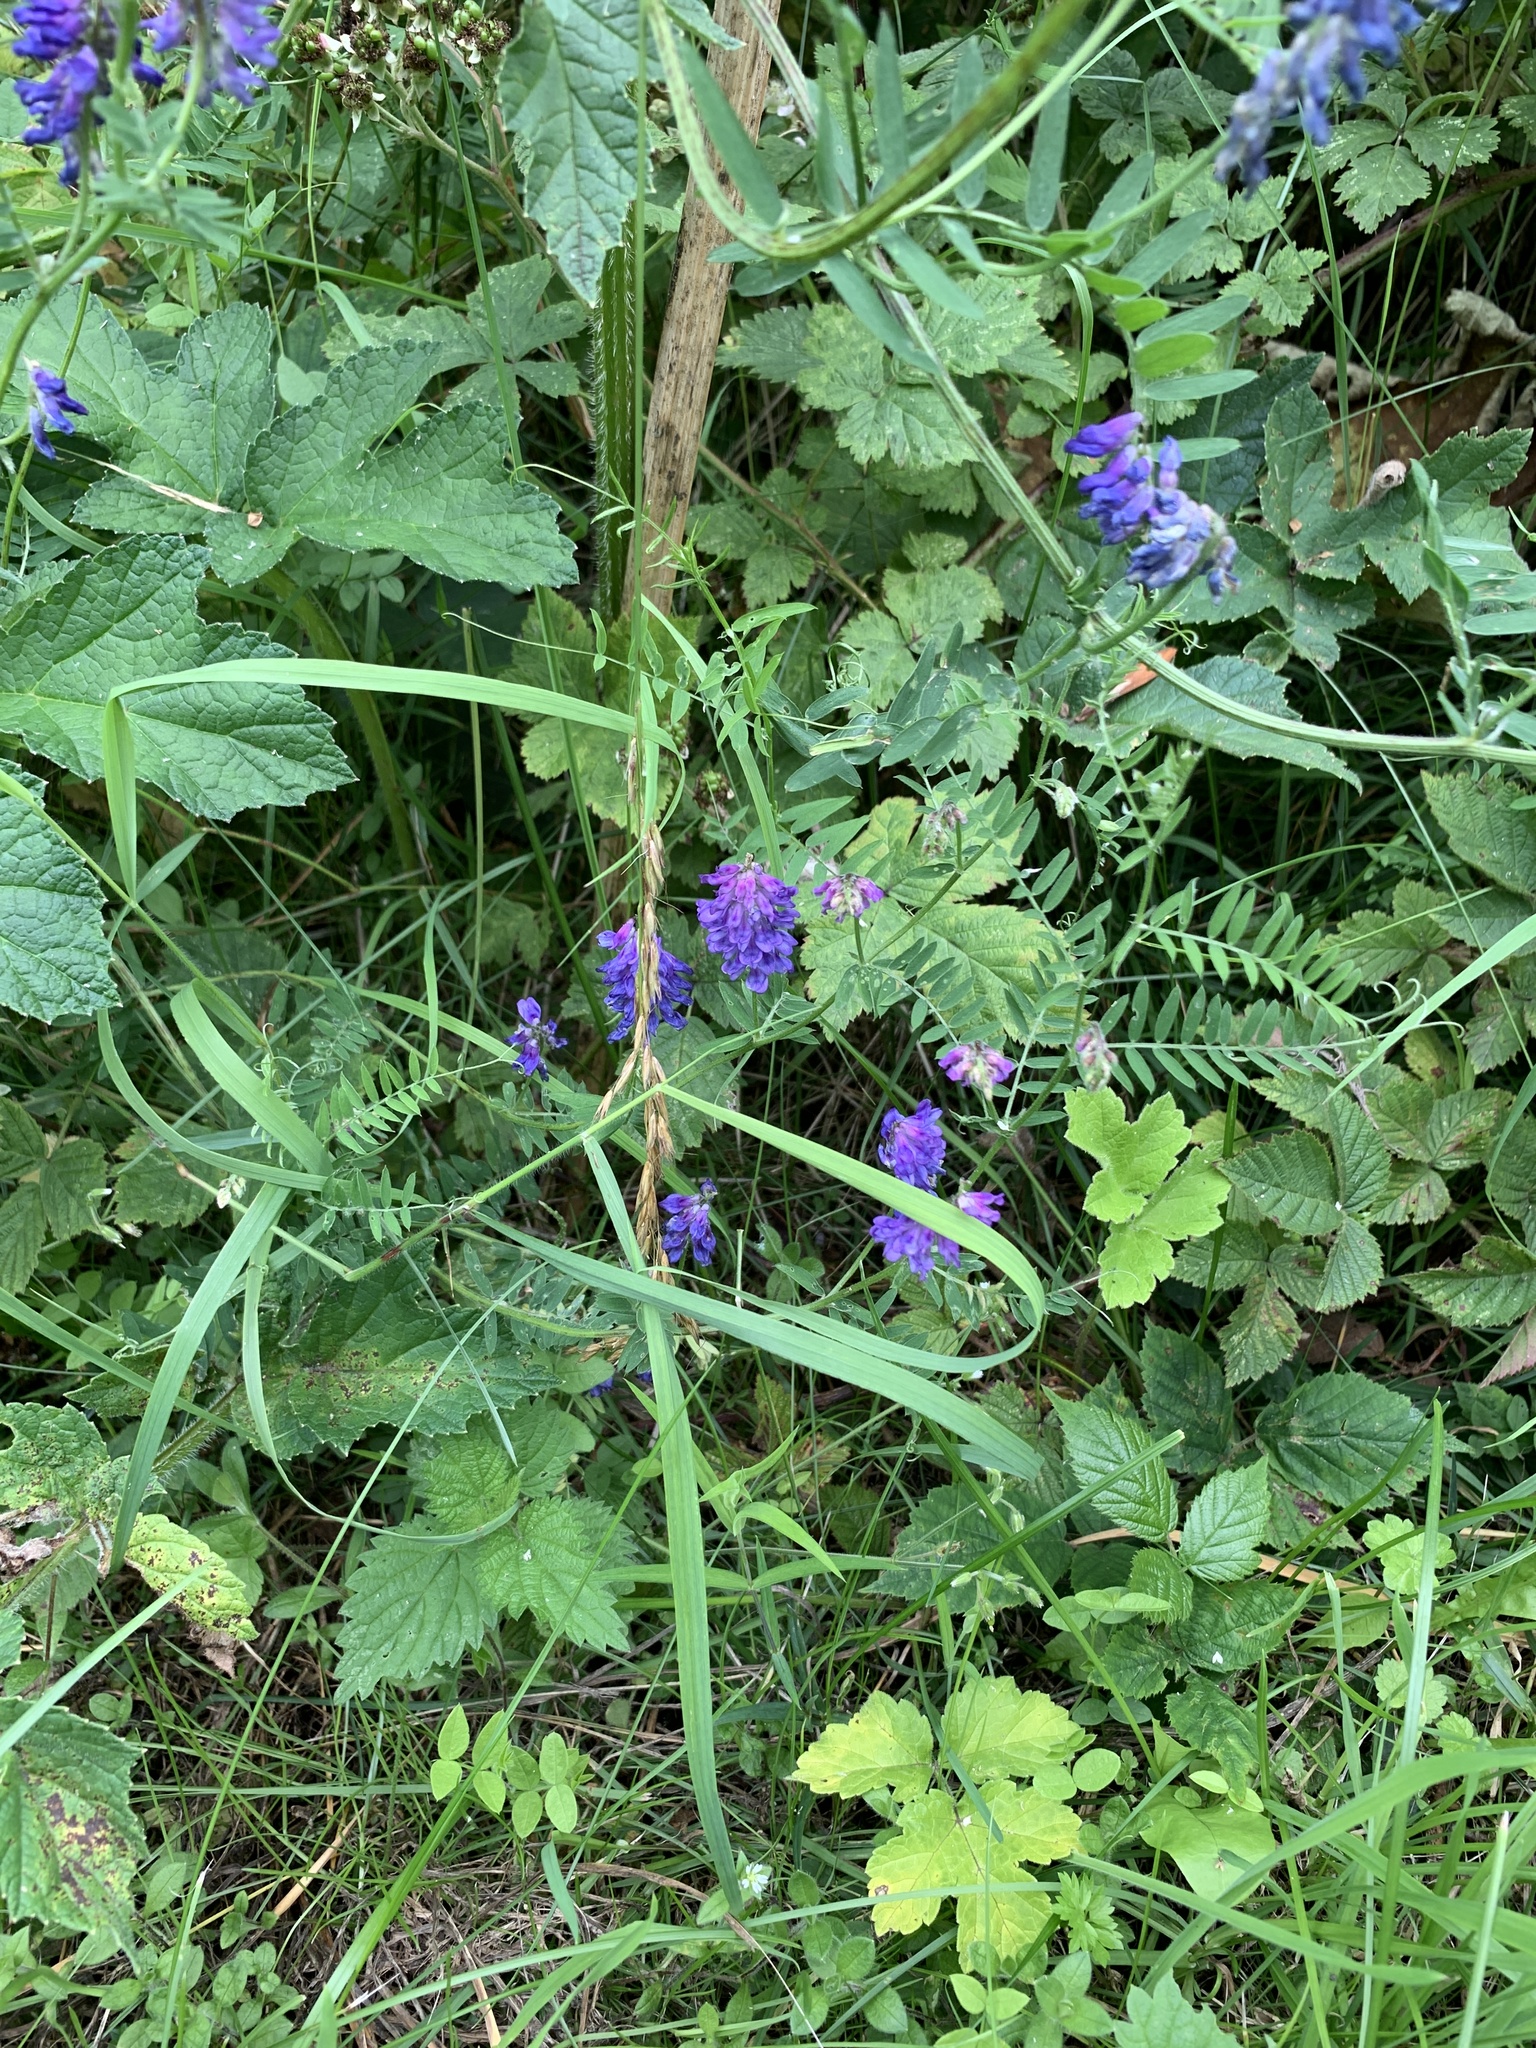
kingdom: Plantae
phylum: Tracheophyta
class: Magnoliopsida
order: Fabales
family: Fabaceae
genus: Vicia
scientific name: Vicia cracca
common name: Bird vetch
